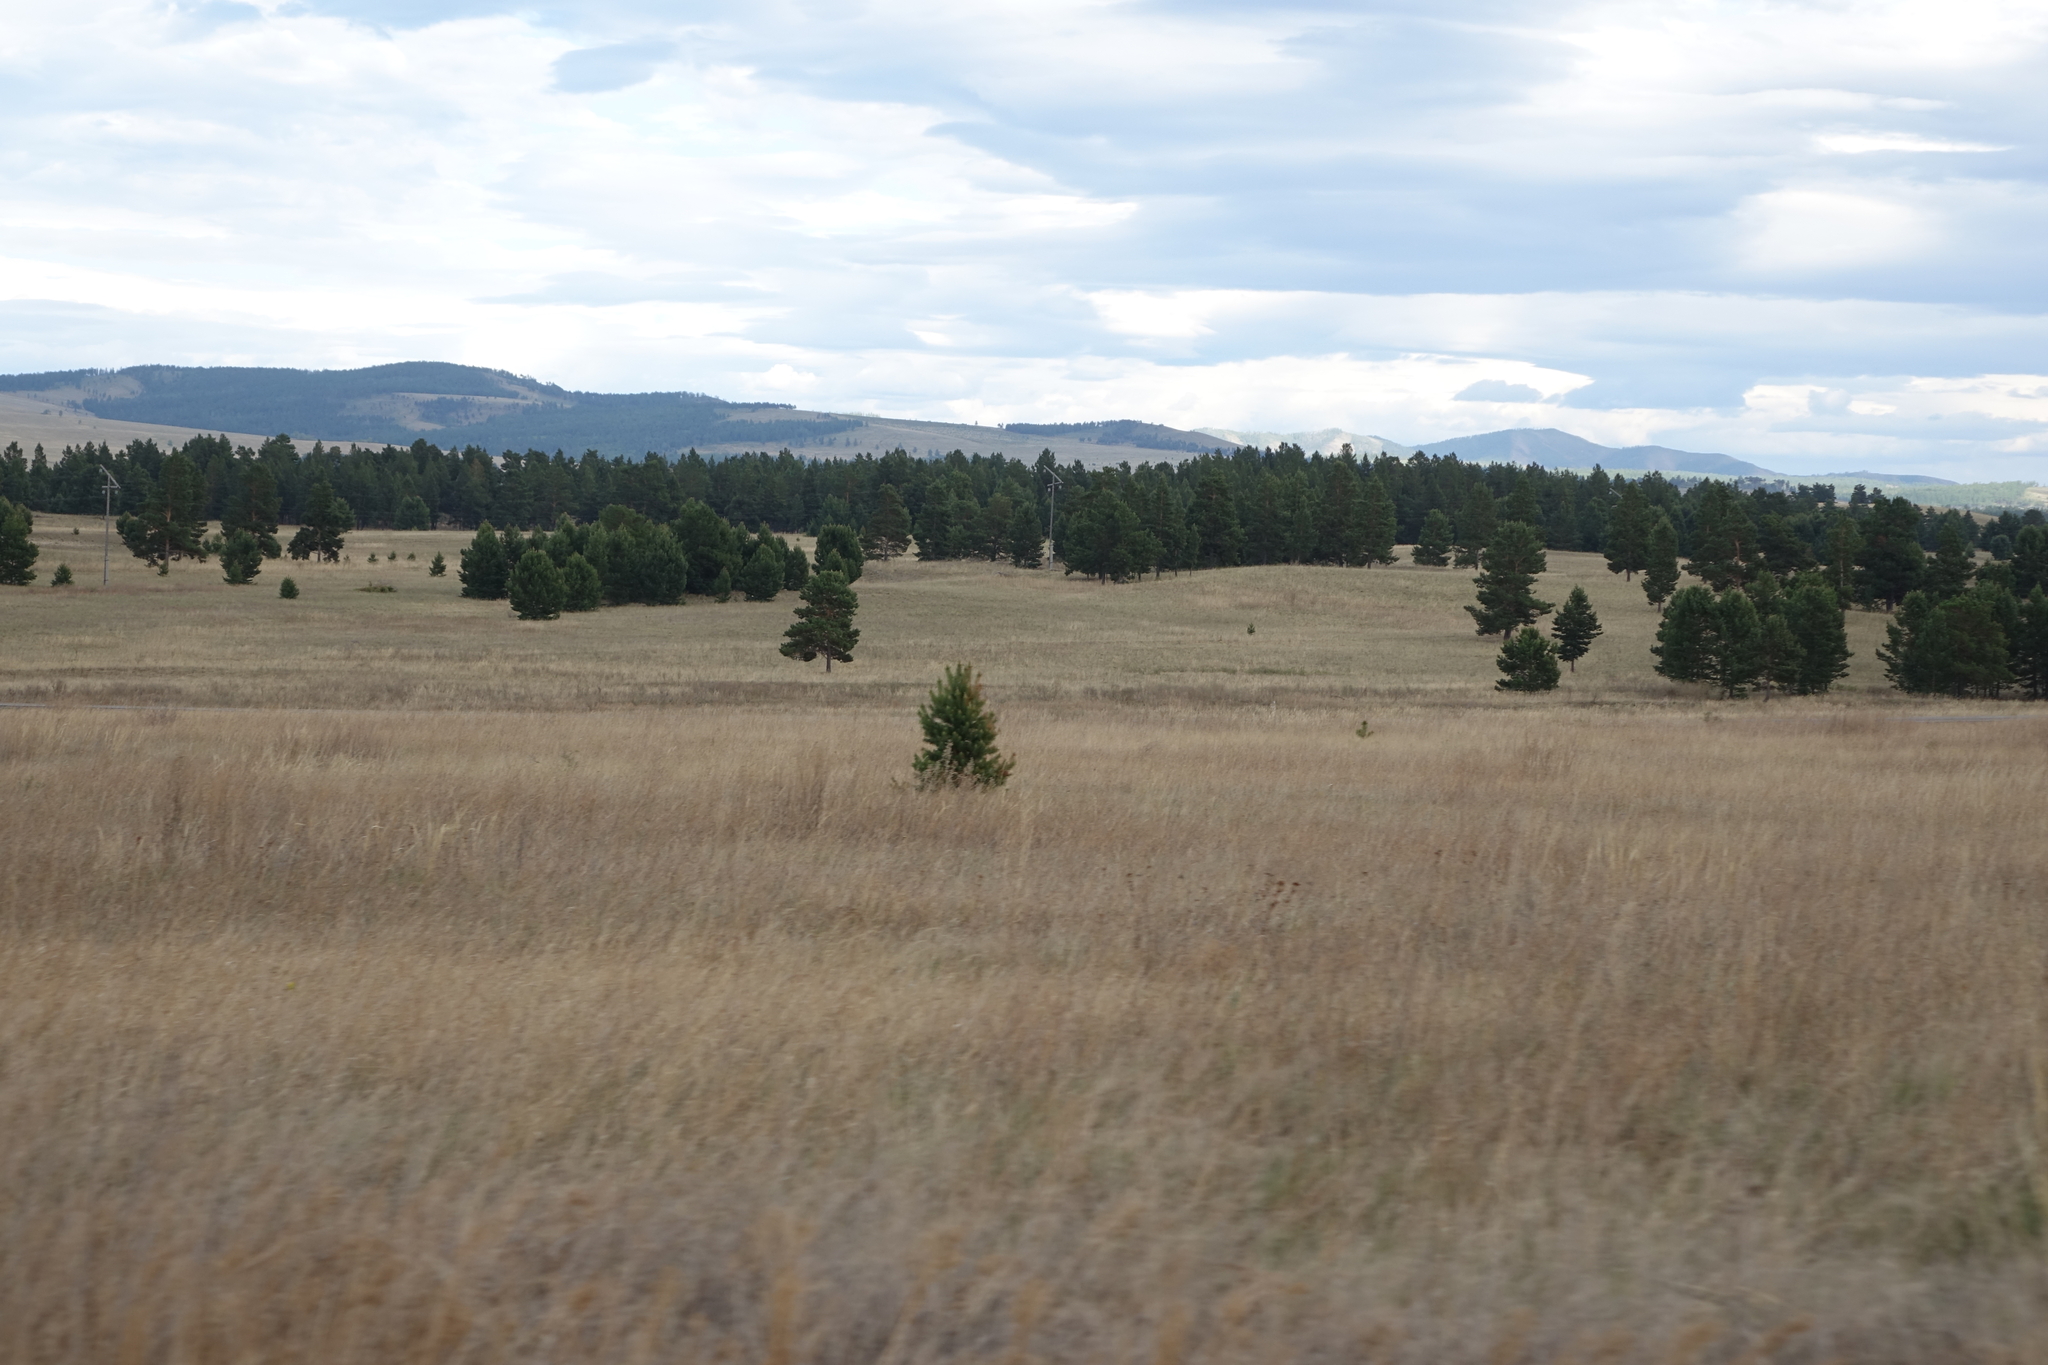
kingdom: Plantae
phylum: Tracheophyta
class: Pinopsida
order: Pinales
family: Pinaceae
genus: Pinus
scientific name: Pinus sylvestris
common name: Scots pine
